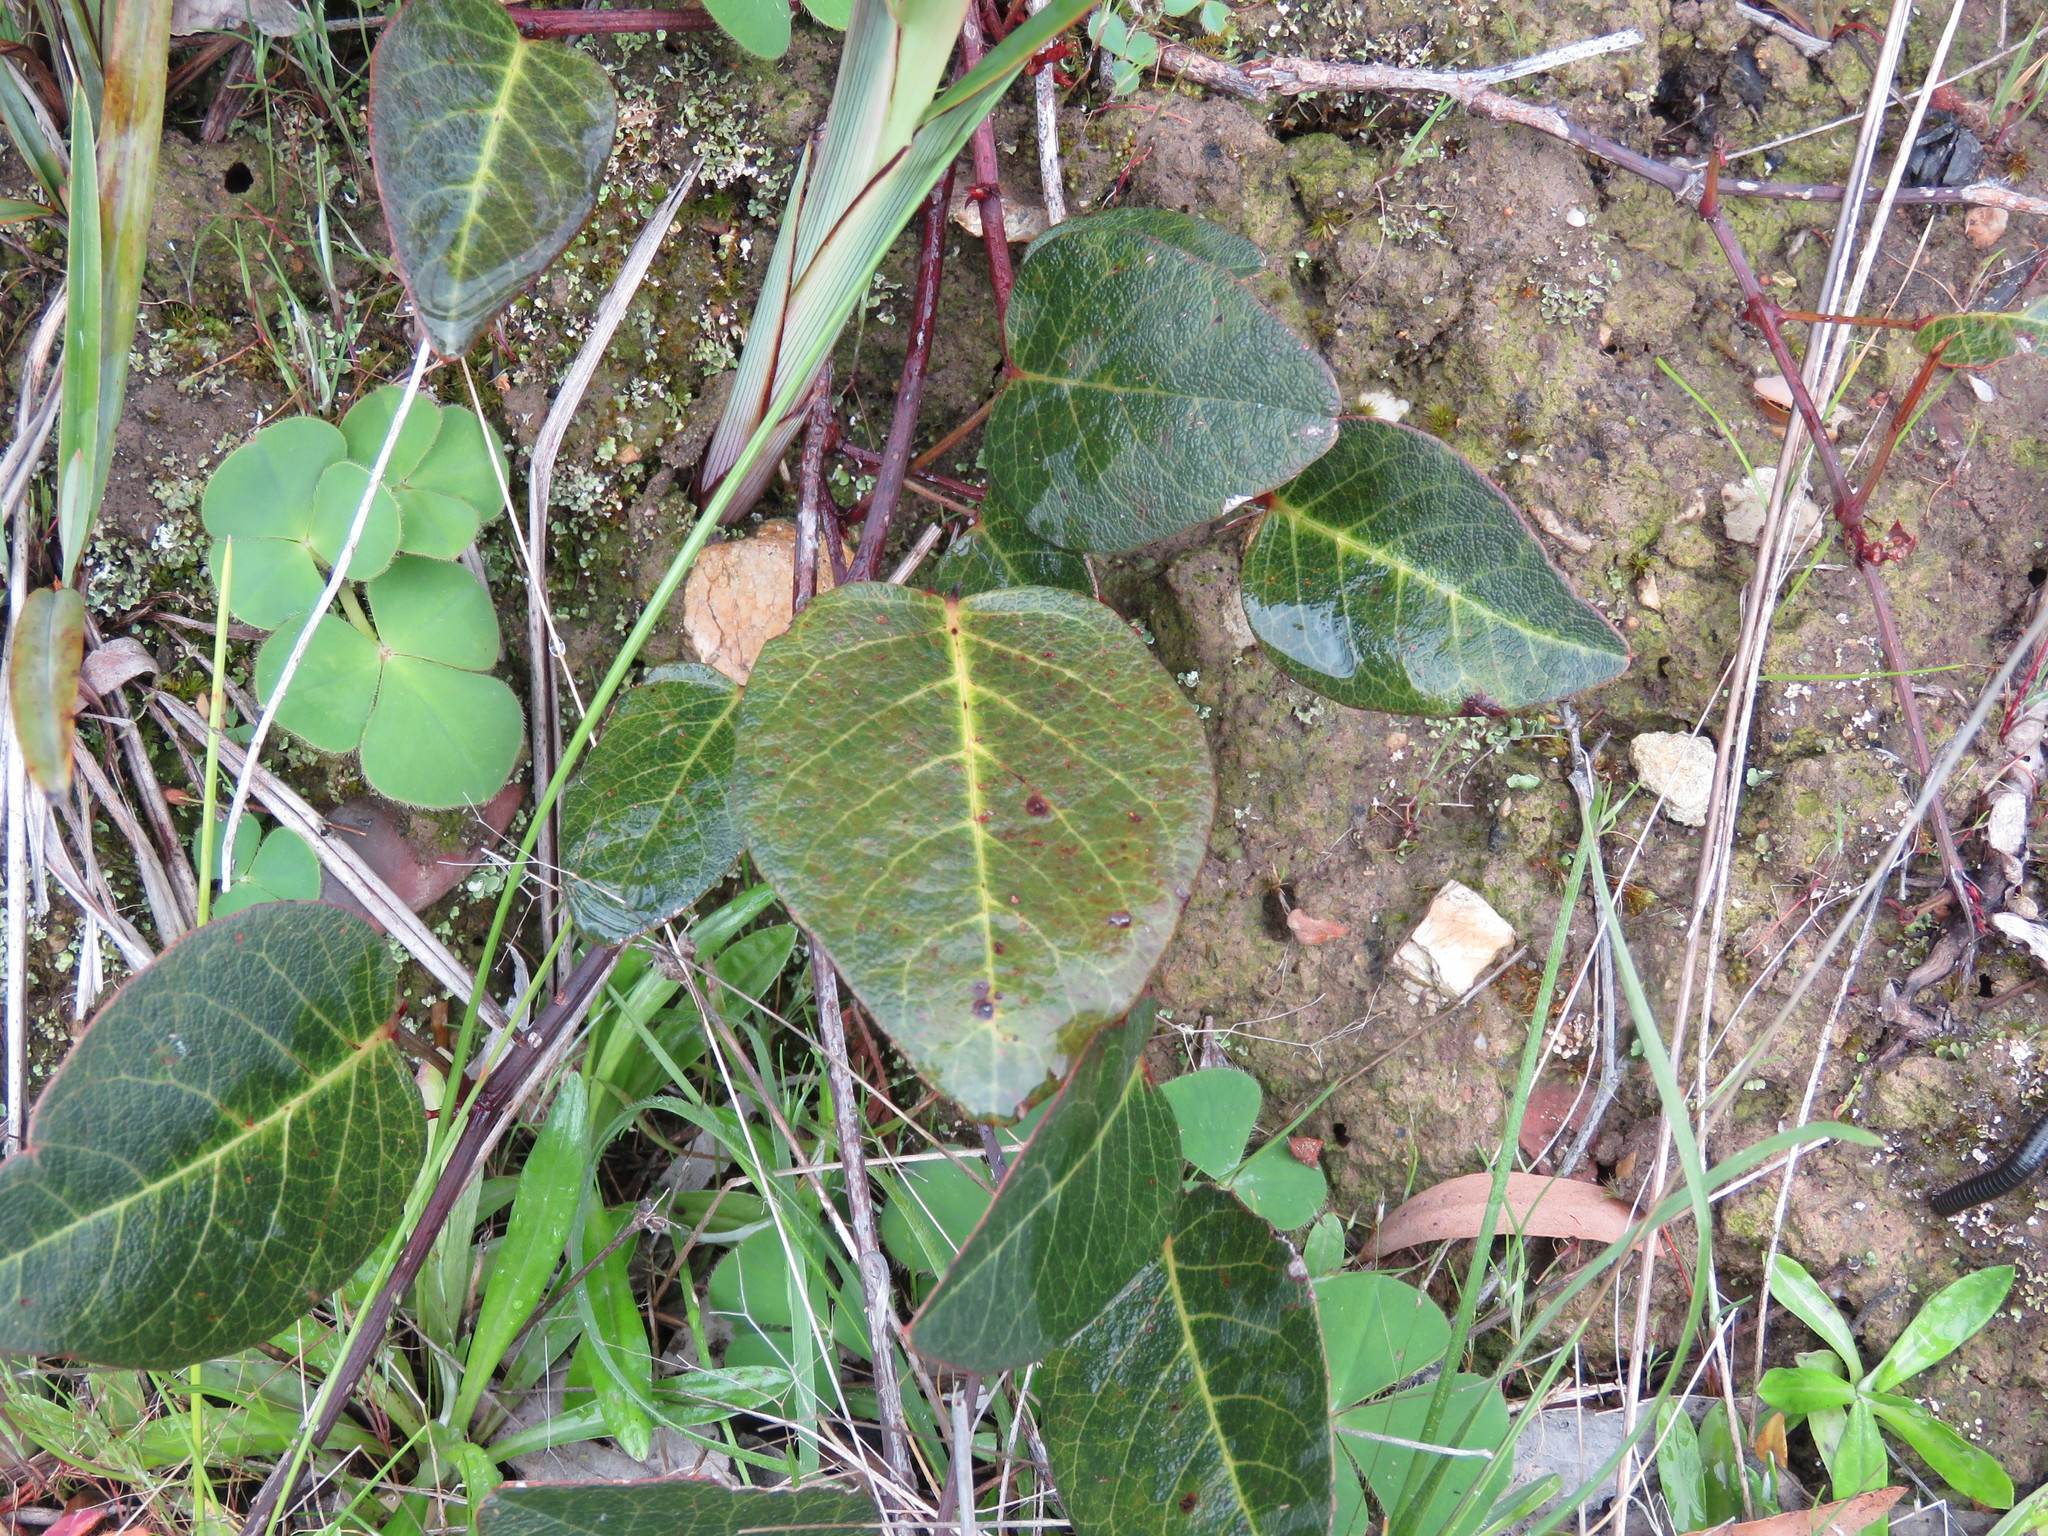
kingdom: Plantae
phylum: Tracheophyta
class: Magnoliopsida
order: Fabales
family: Fabaceae
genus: Hardenbergia
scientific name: Hardenbergia violacea
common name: Coral-pea
